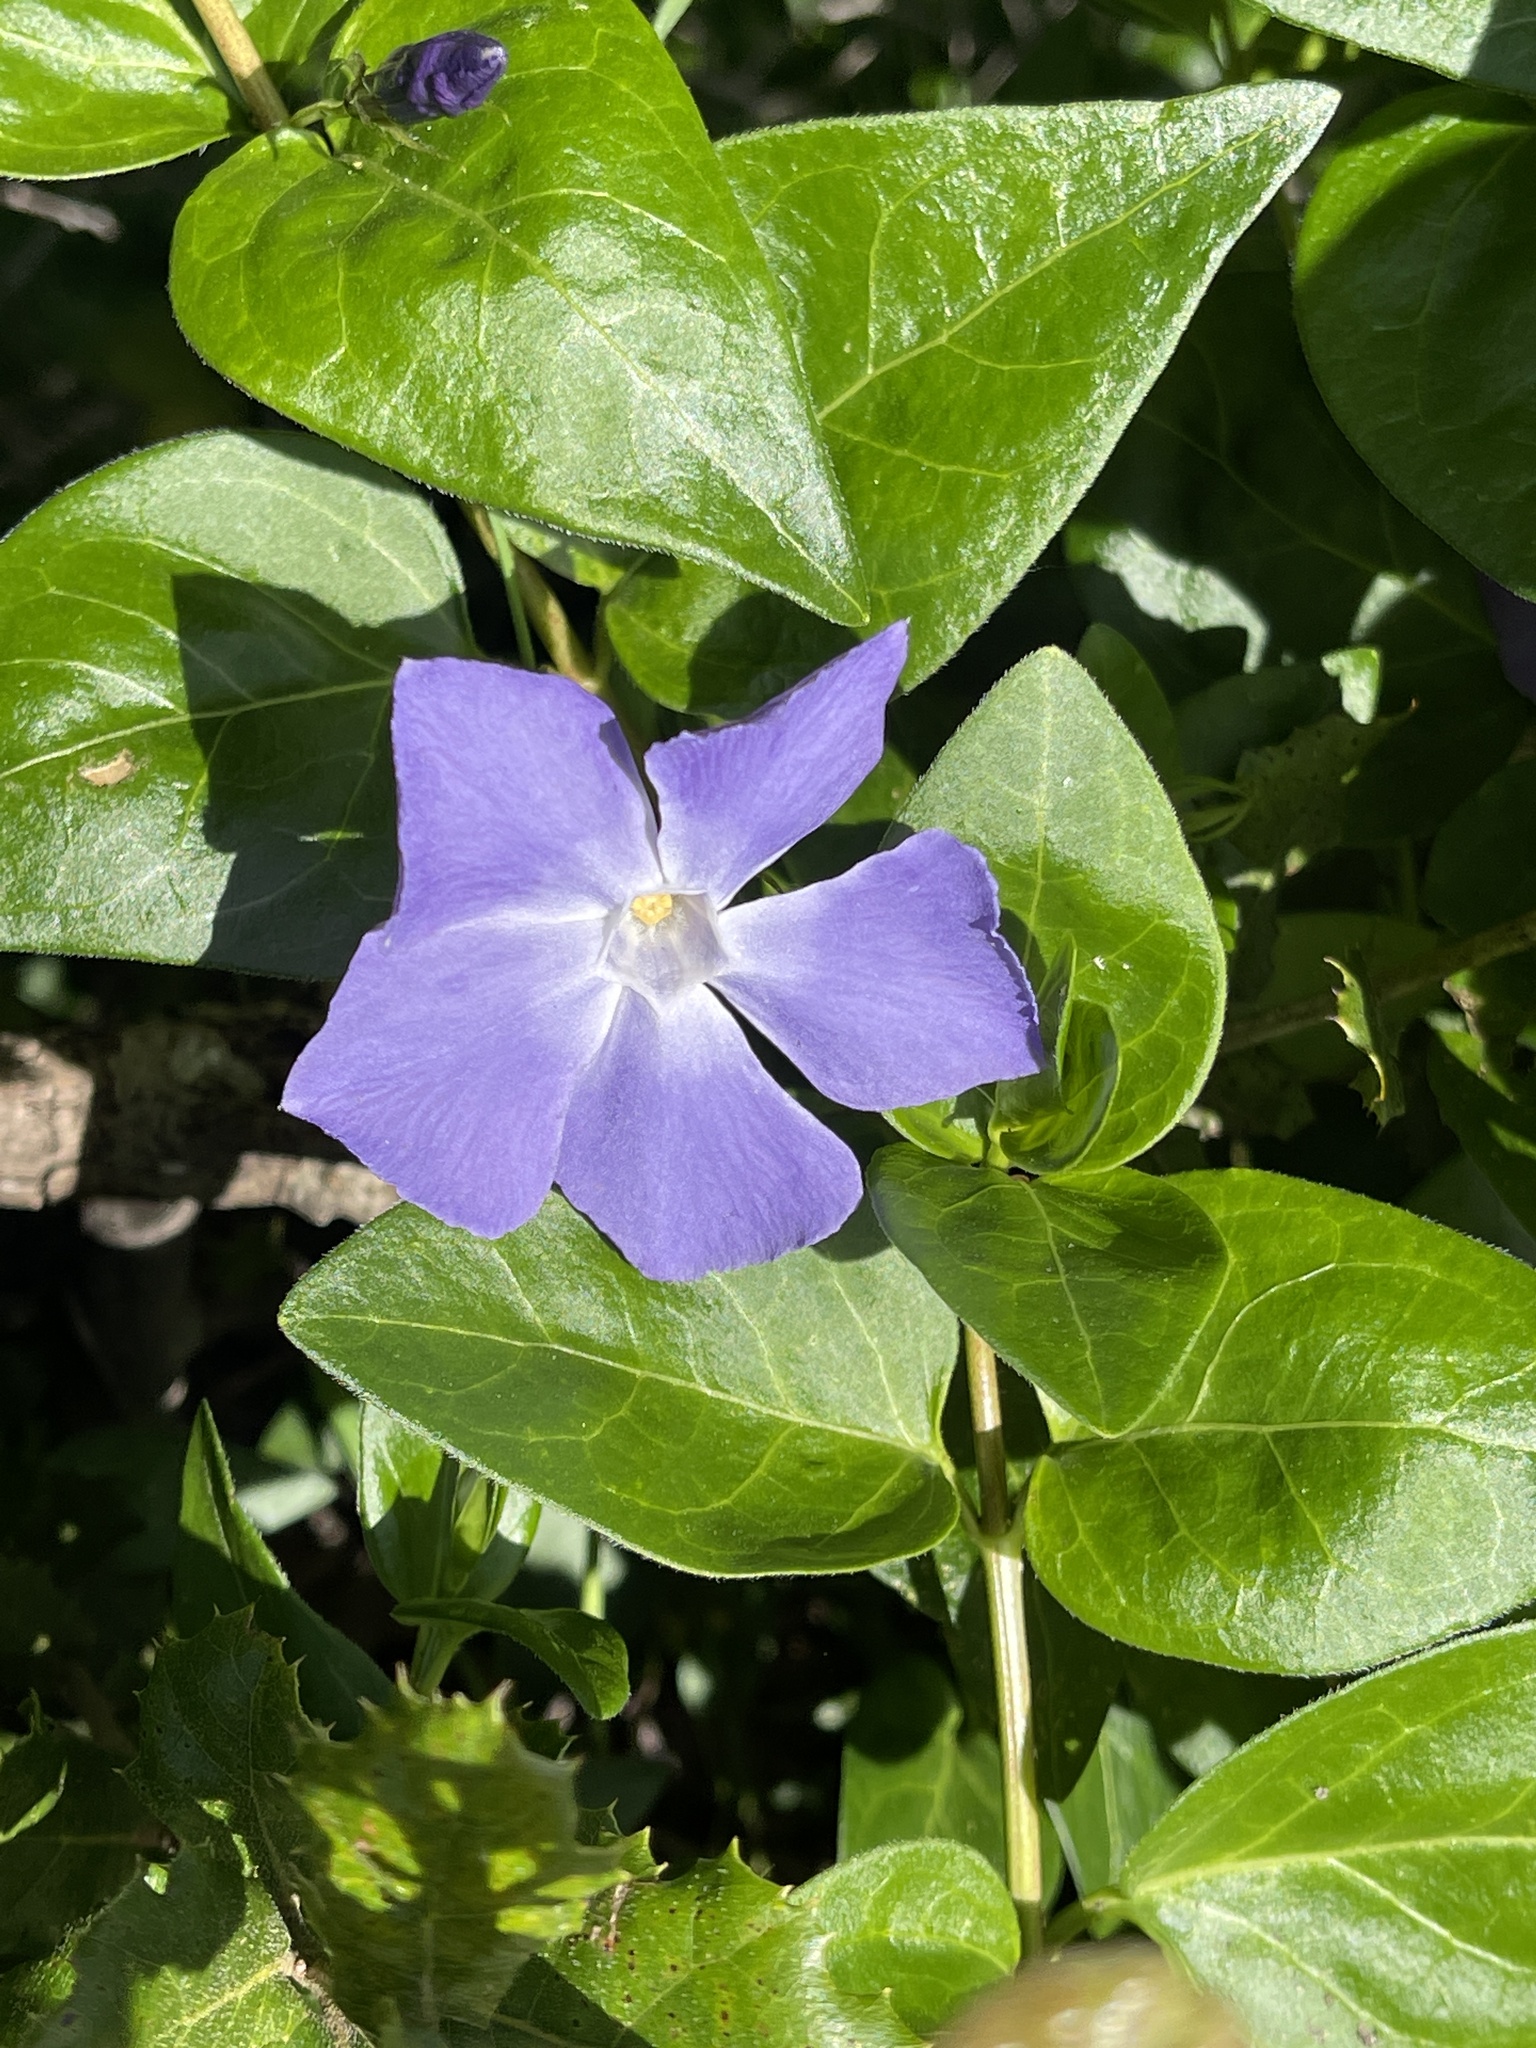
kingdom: Plantae
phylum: Tracheophyta
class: Magnoliopsida
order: Gentianales
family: Apocynaceae
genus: Vinca
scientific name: Vinca major
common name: Greater periwinkle
